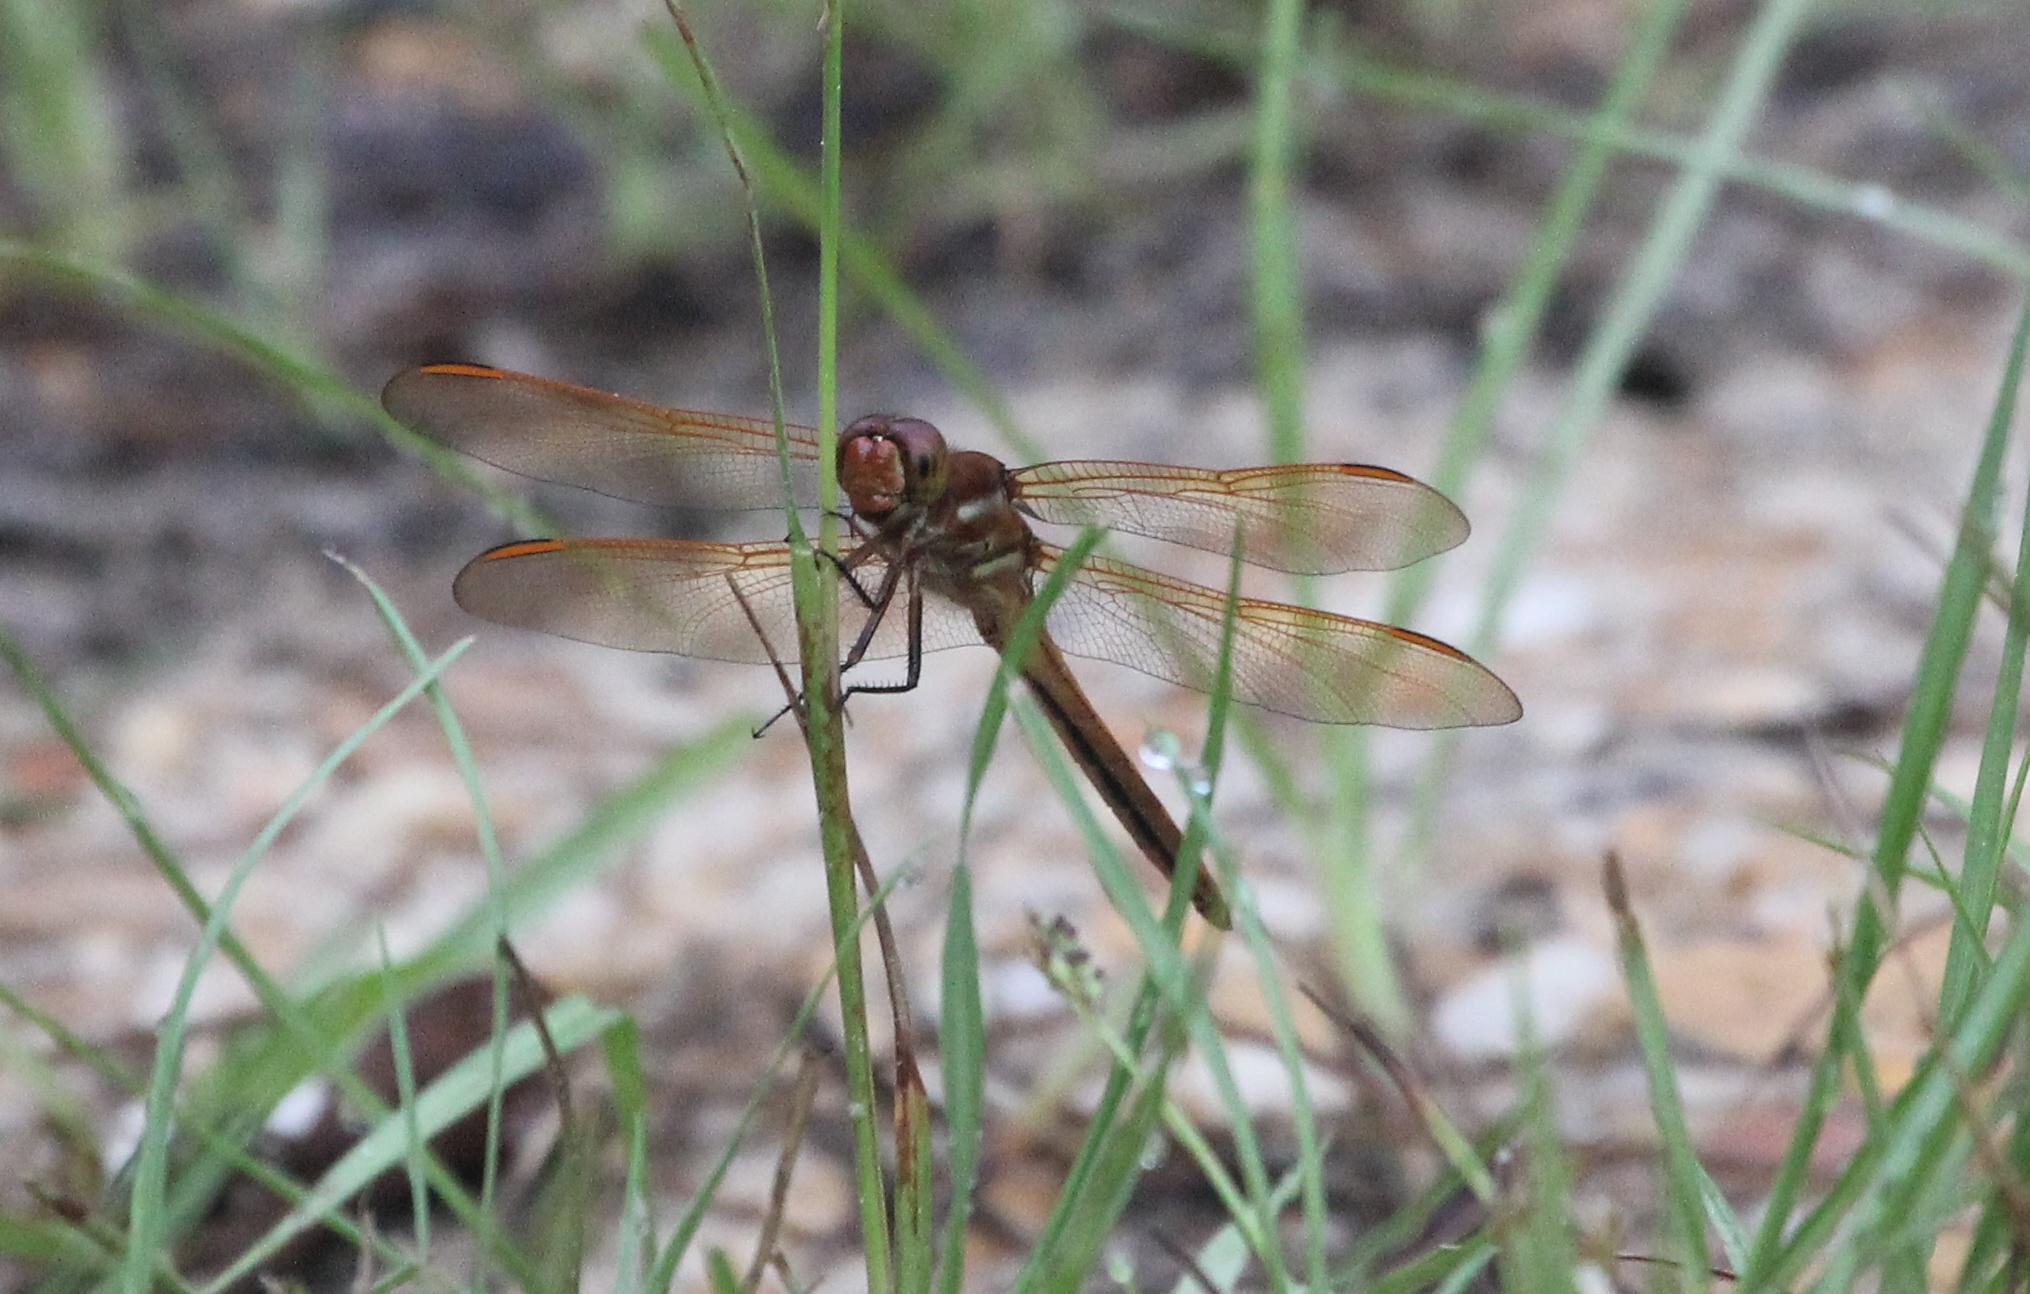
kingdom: Animalia
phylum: Arthropoda
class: Insecta
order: Odonata
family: Libellulidae
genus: Libellula
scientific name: Libellula auripennis
